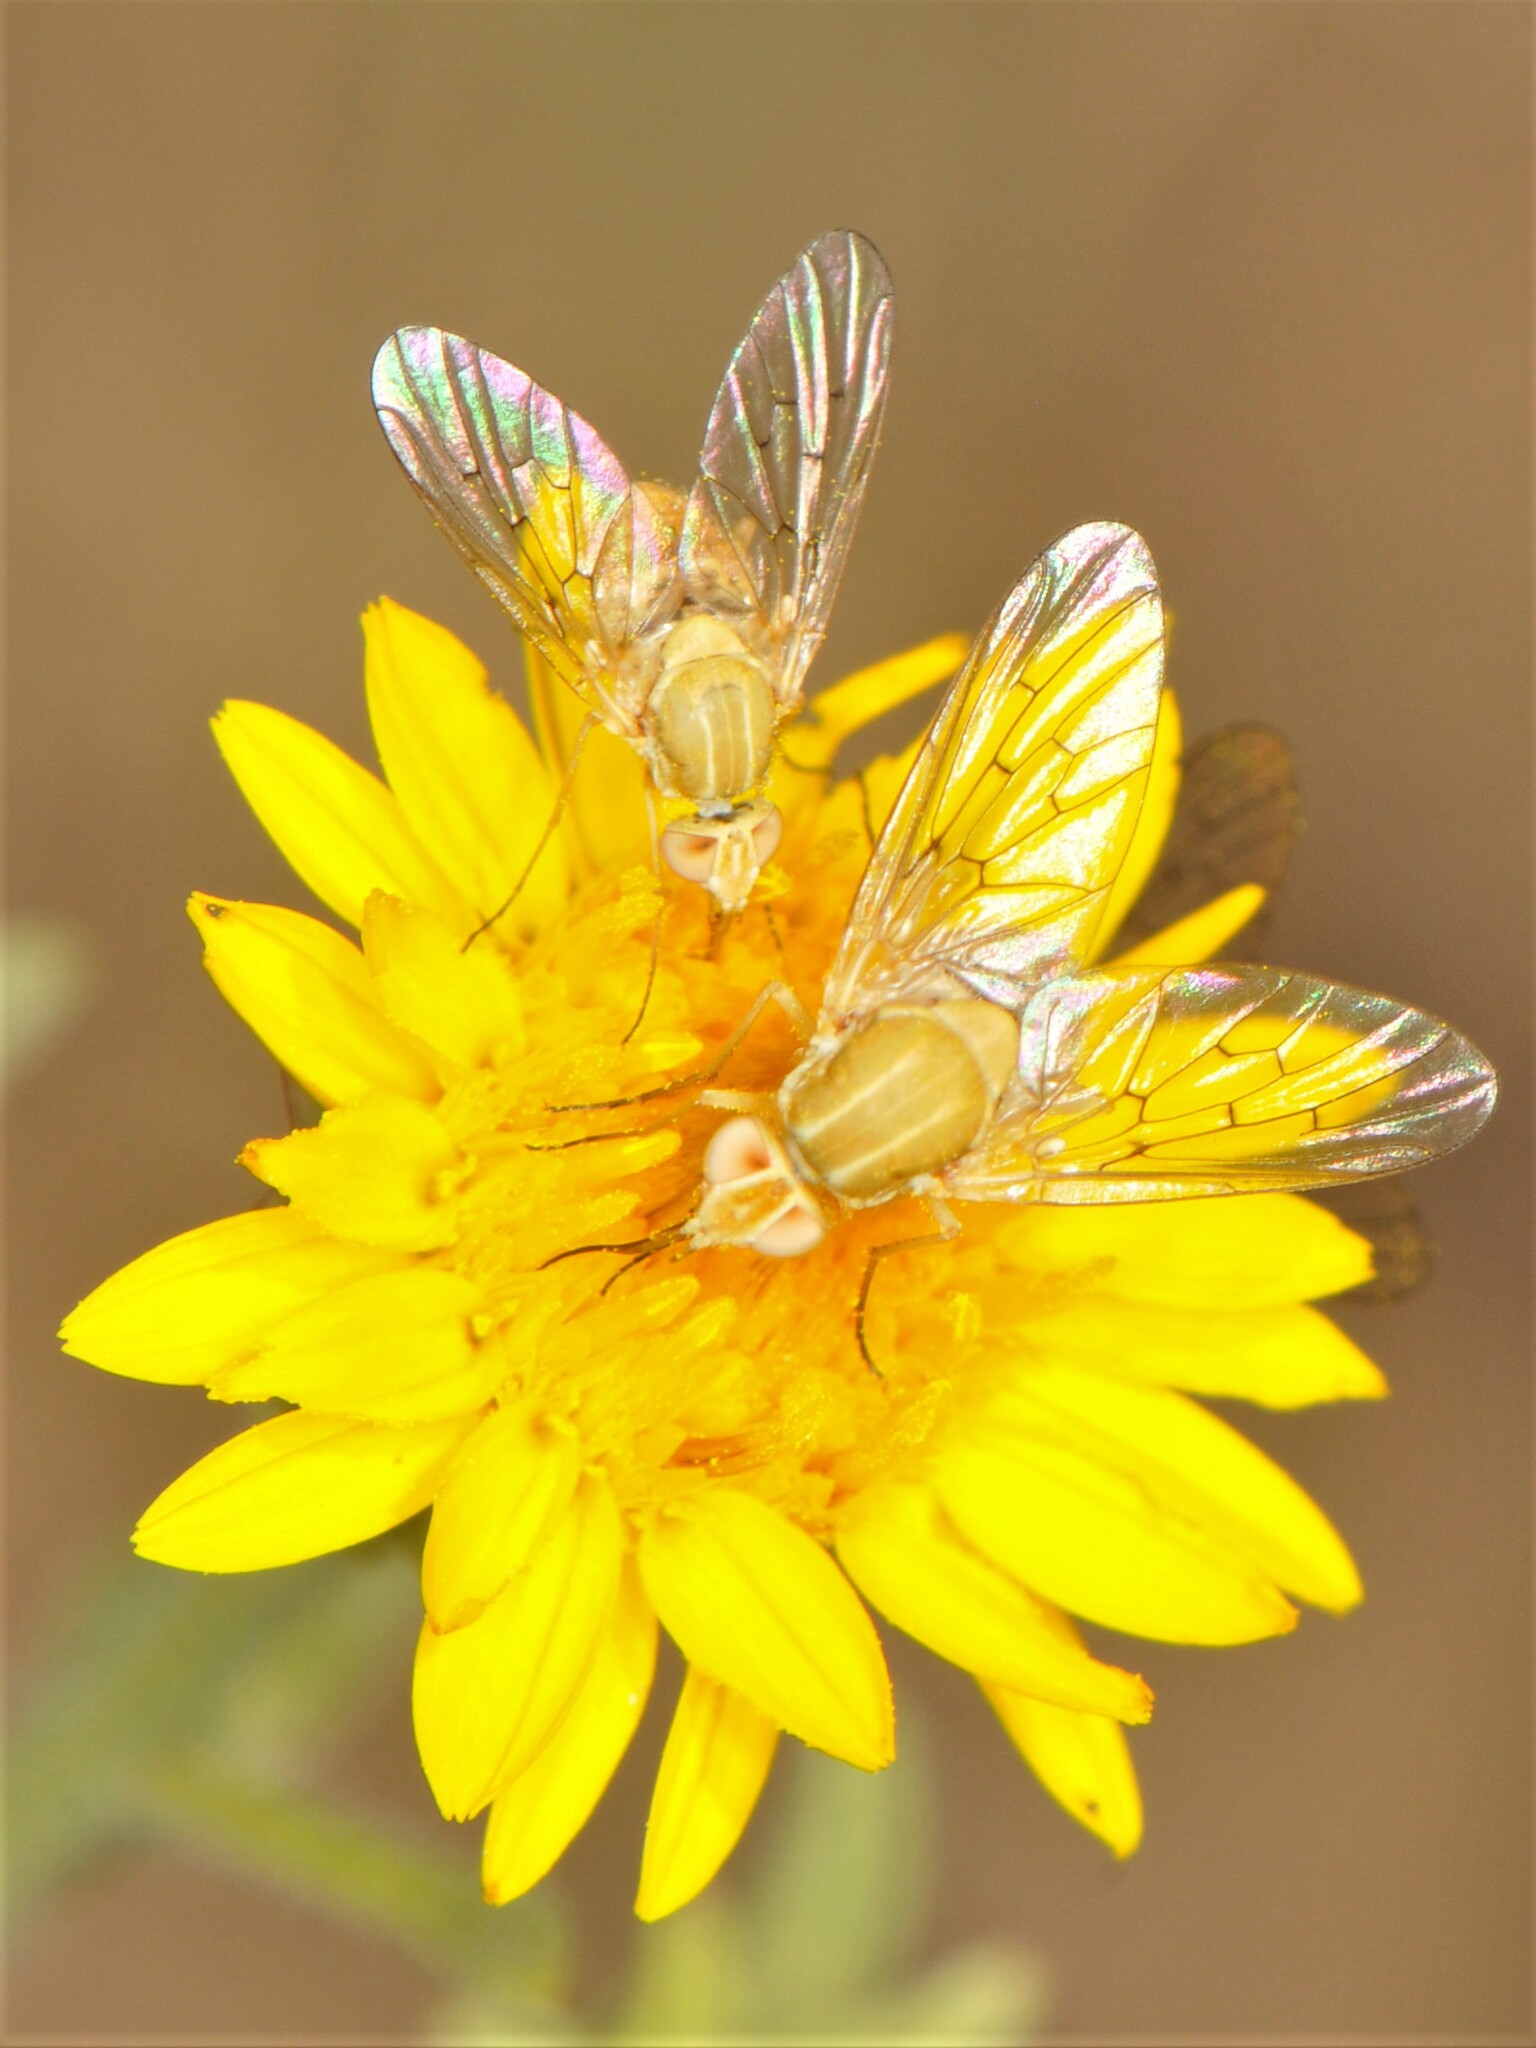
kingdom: Animalia
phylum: Arthropoda
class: Insecta
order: Diptera
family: Bombyliidae
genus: Poecilognathus
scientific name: Poecilognathus unimaculatus
